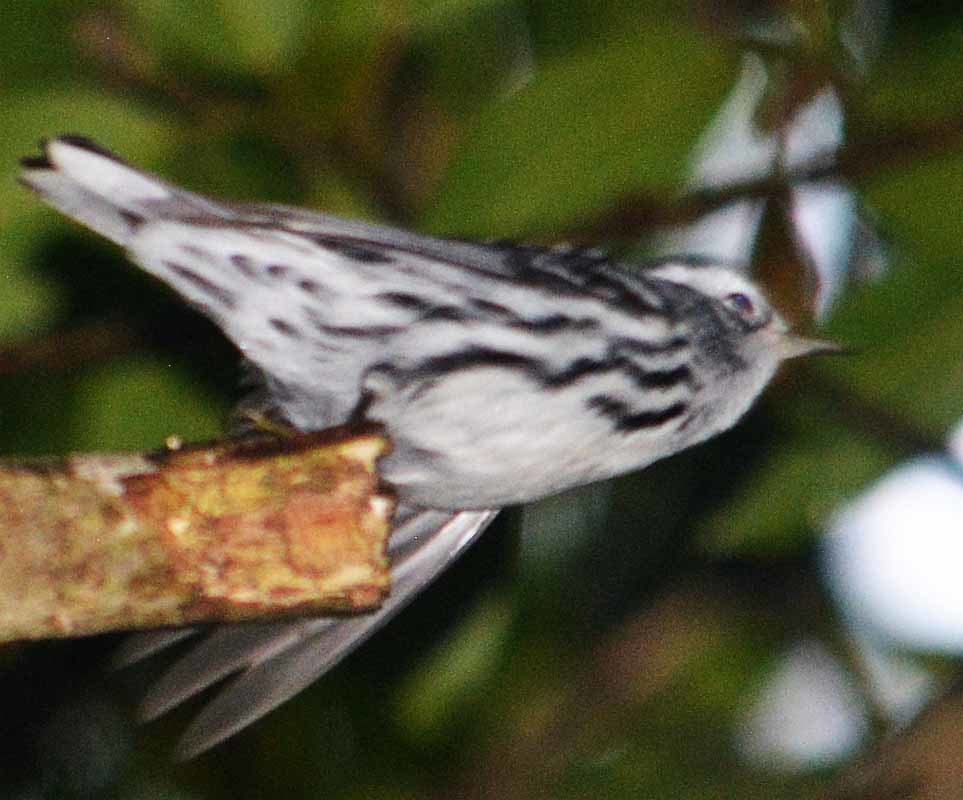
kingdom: Animalia
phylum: Chordata
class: Aves
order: Passeriformes
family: Parulidae
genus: Mniotilta
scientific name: Mniotilta varia
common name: Black-and-white warbler
